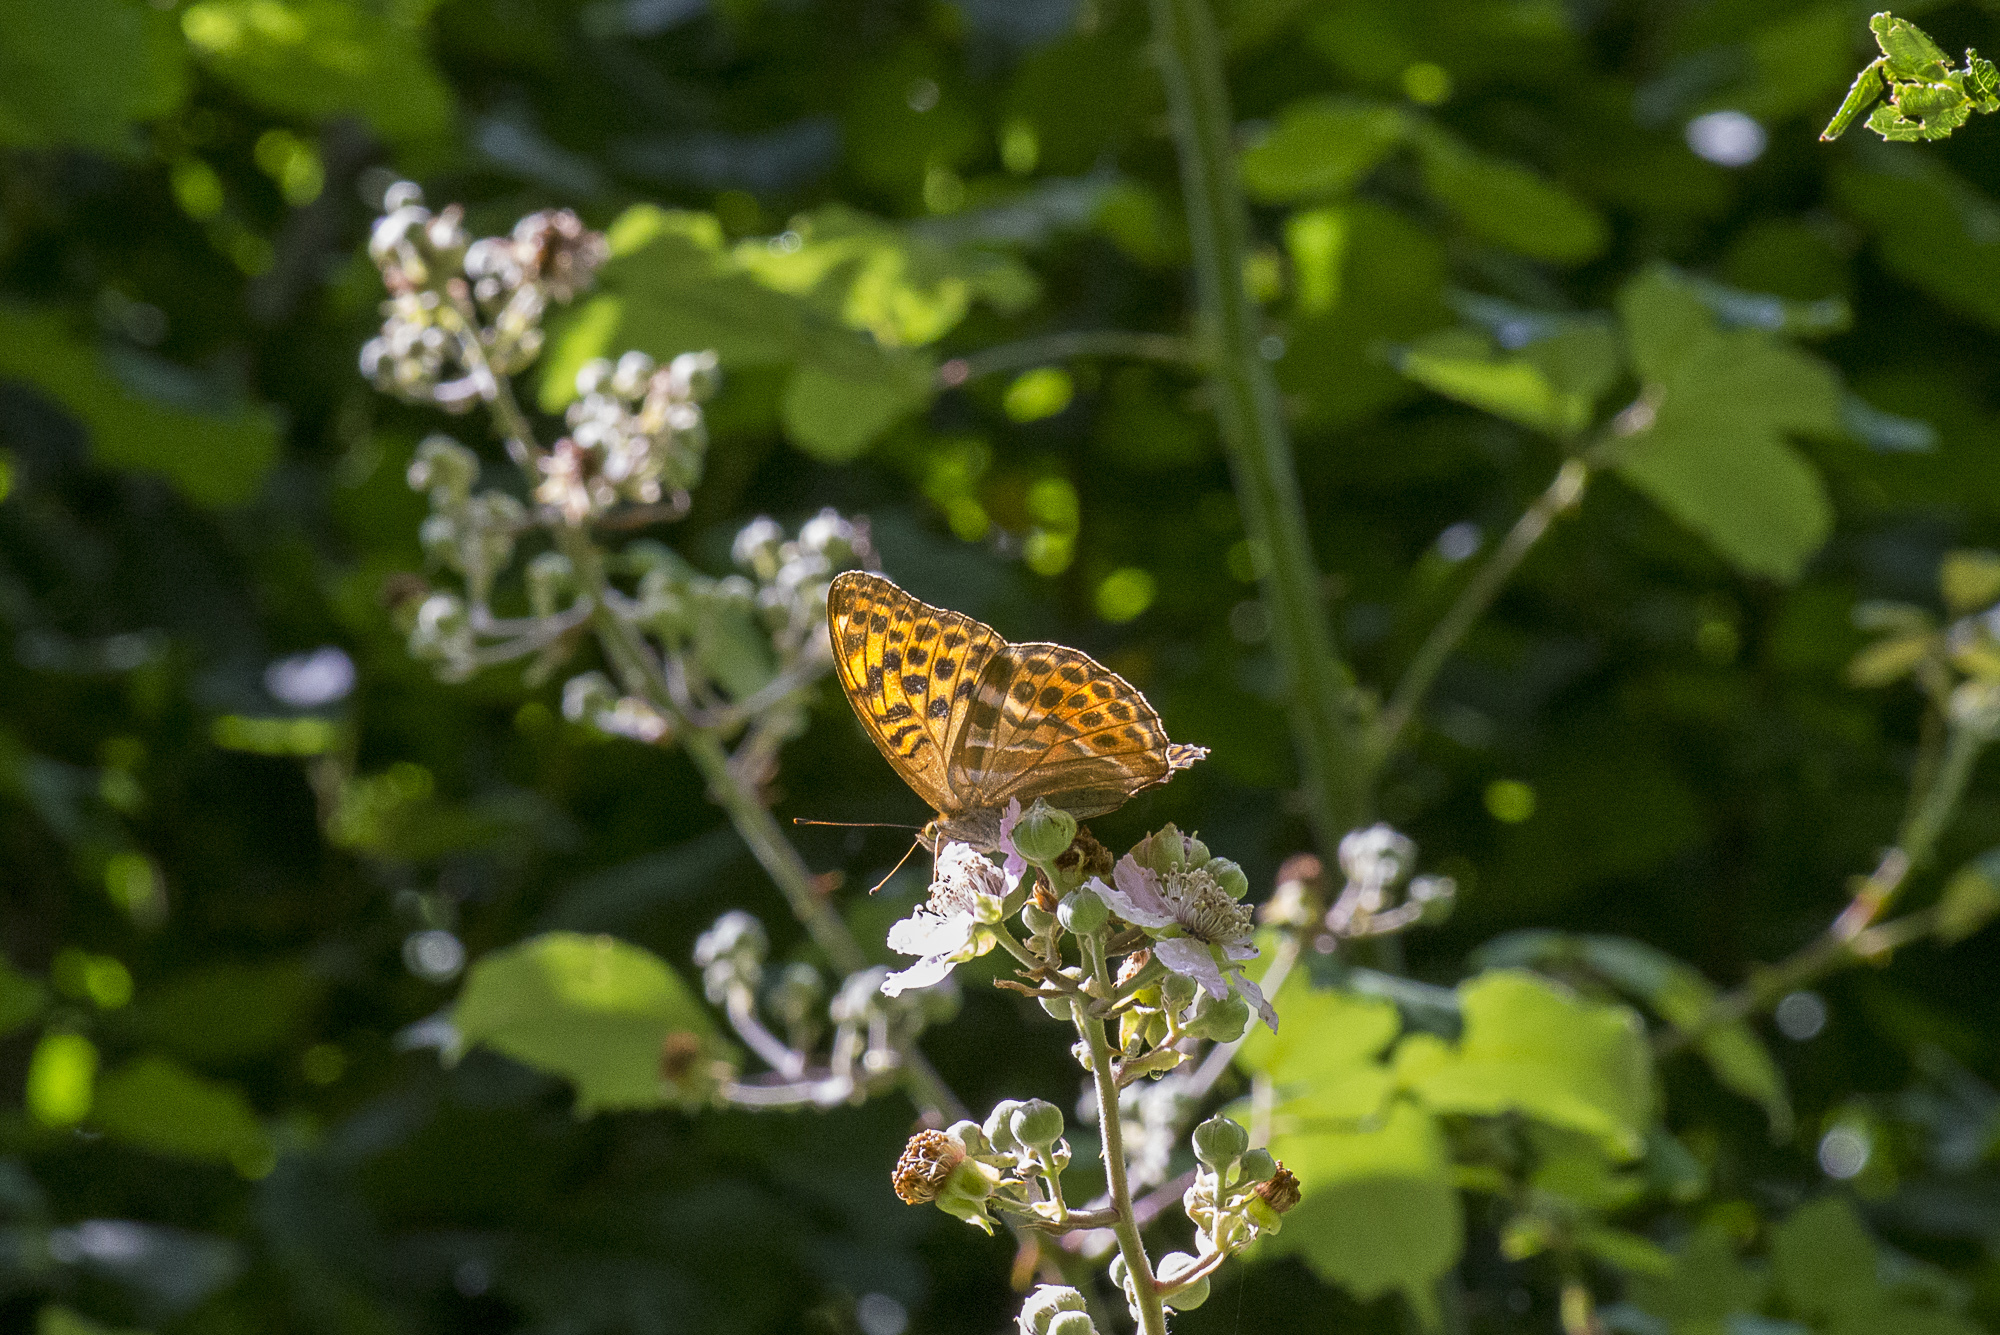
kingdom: Animalia
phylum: Arthropoda
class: Insecta
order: Lepidoptera
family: Nymphalidae
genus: Argynnis
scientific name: Argynnis paphia
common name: Silver-washed fritillary
